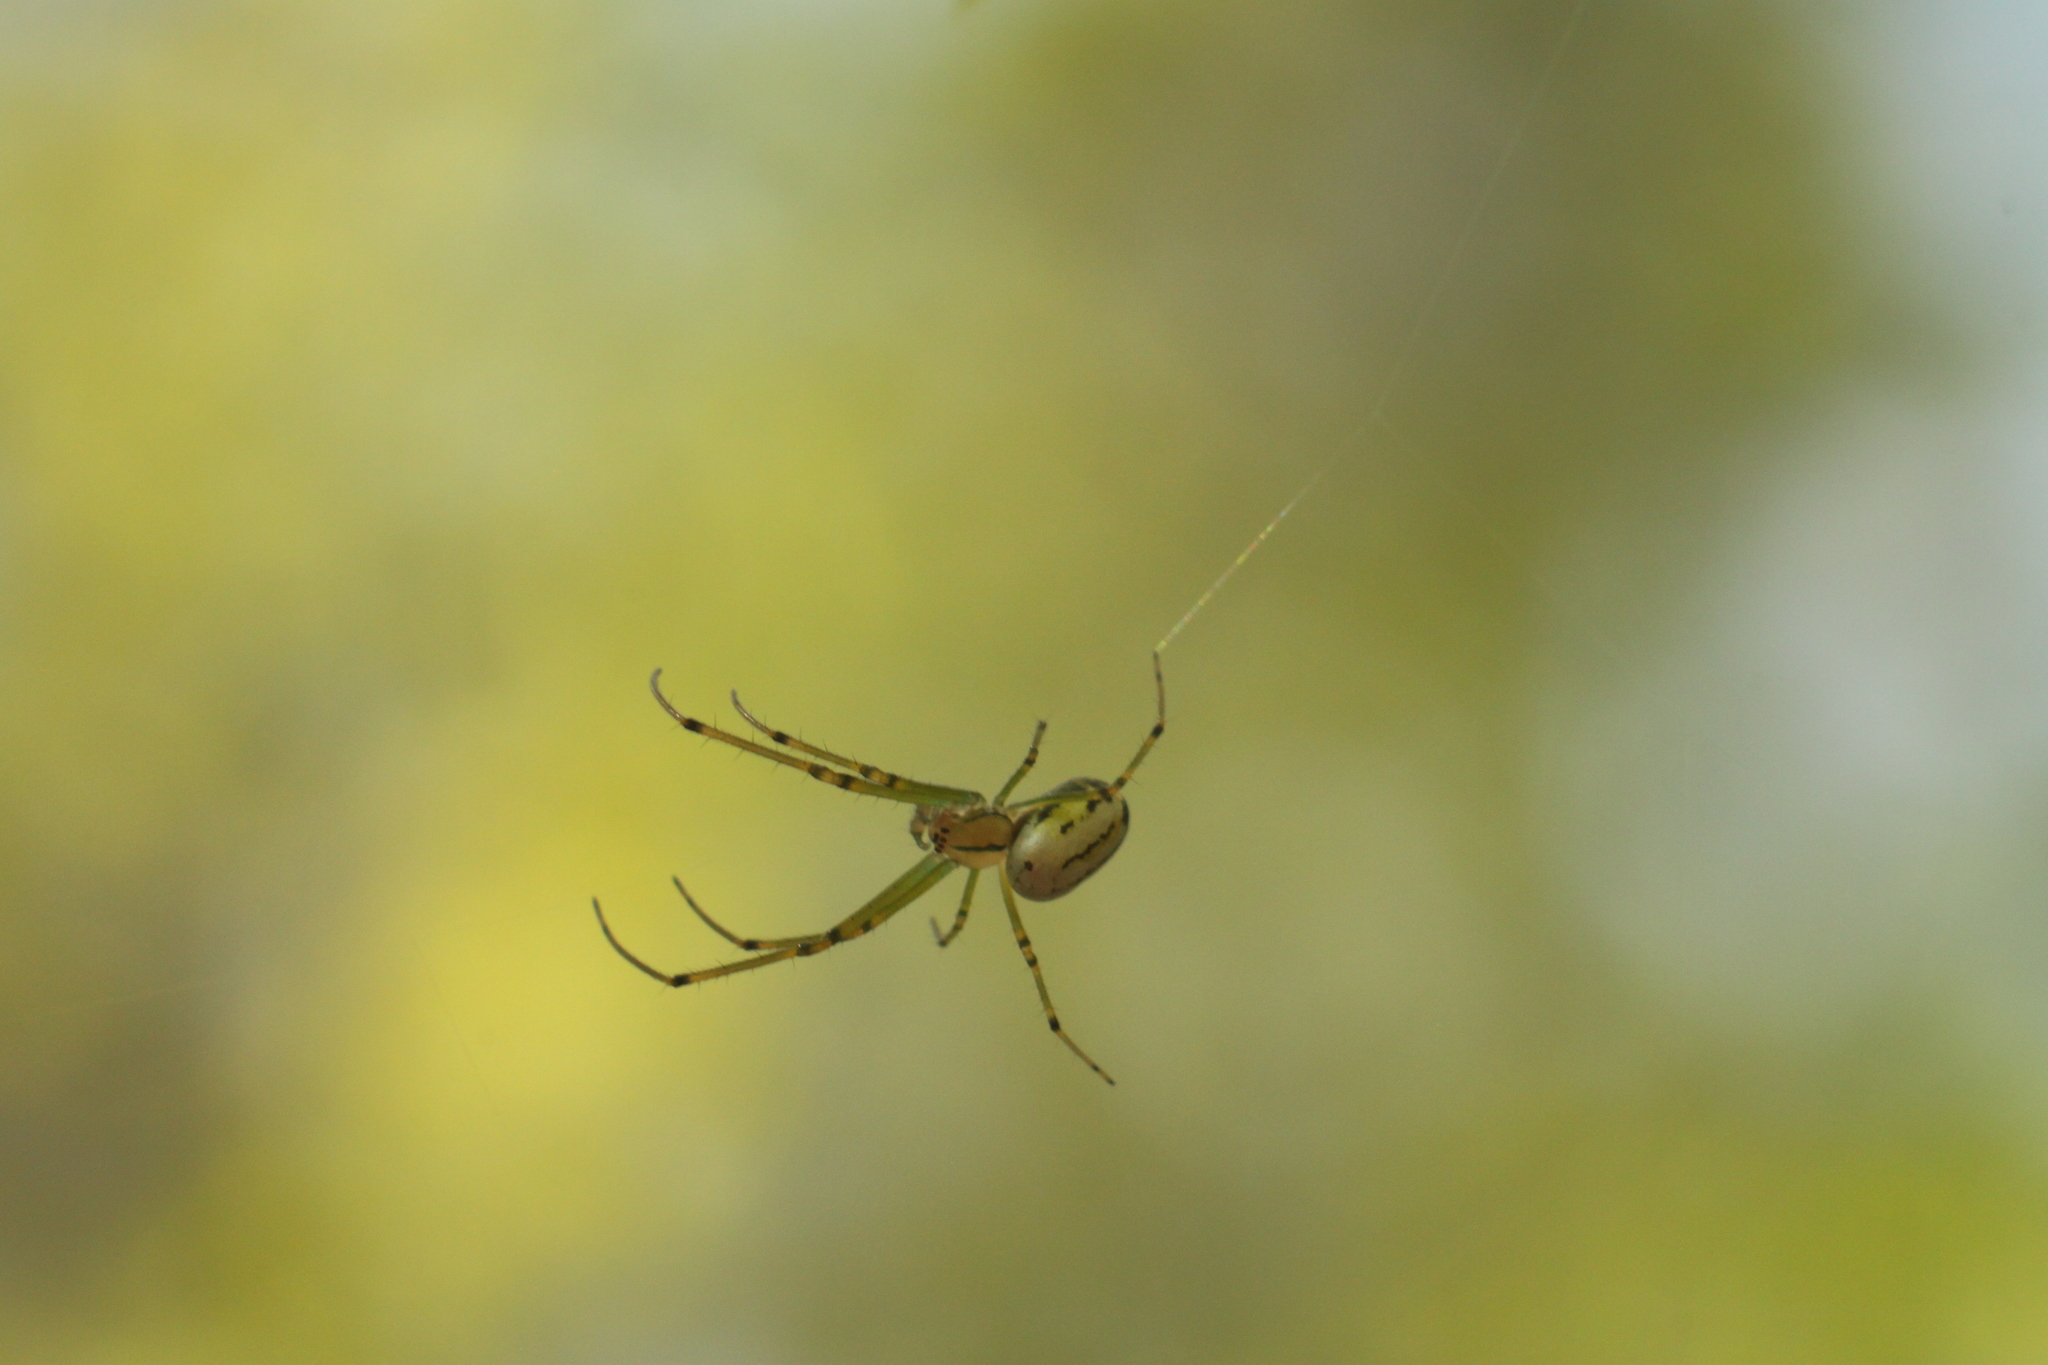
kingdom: Animalia
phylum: Arthropoda
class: Arachnida
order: Araneae
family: Tetragnathidae
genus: Leucauge
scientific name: Leucauge venusta
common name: Longjawed orb weavers
